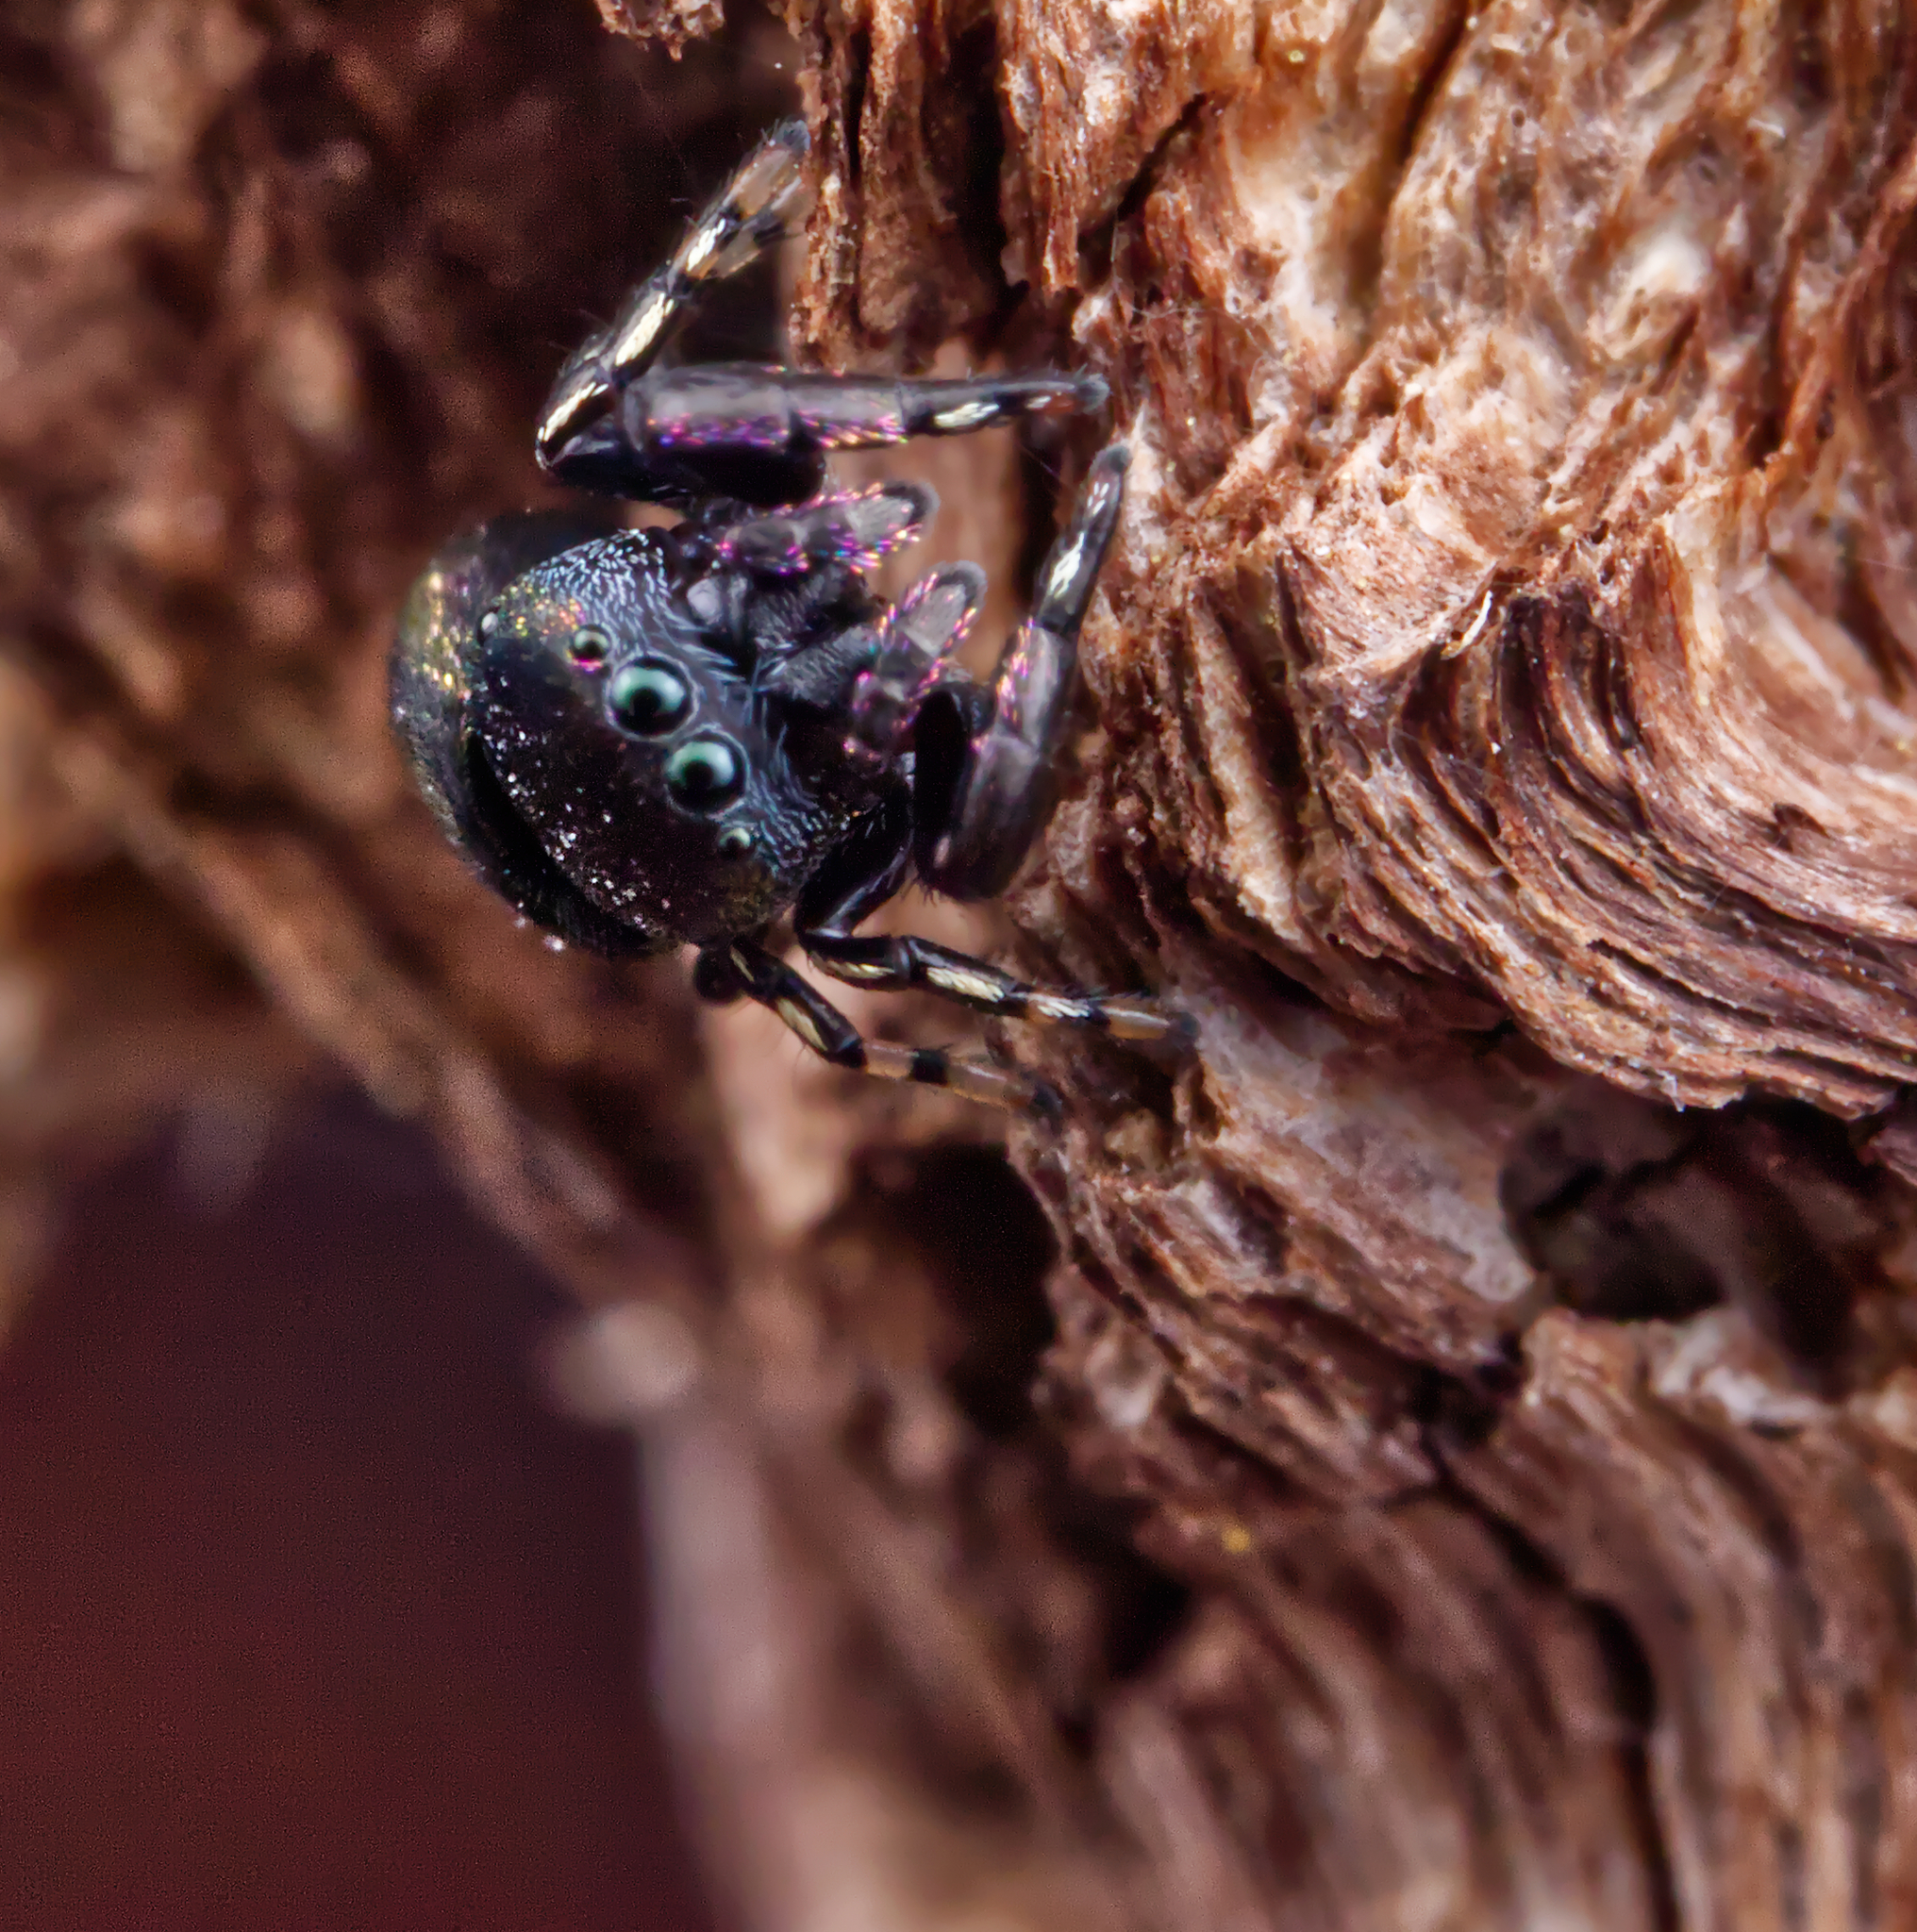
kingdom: Animalia
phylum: Arthropoda
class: Arachnida
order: Araneae
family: Salticidae
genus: Sassacus
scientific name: Sassacus cyaneus
